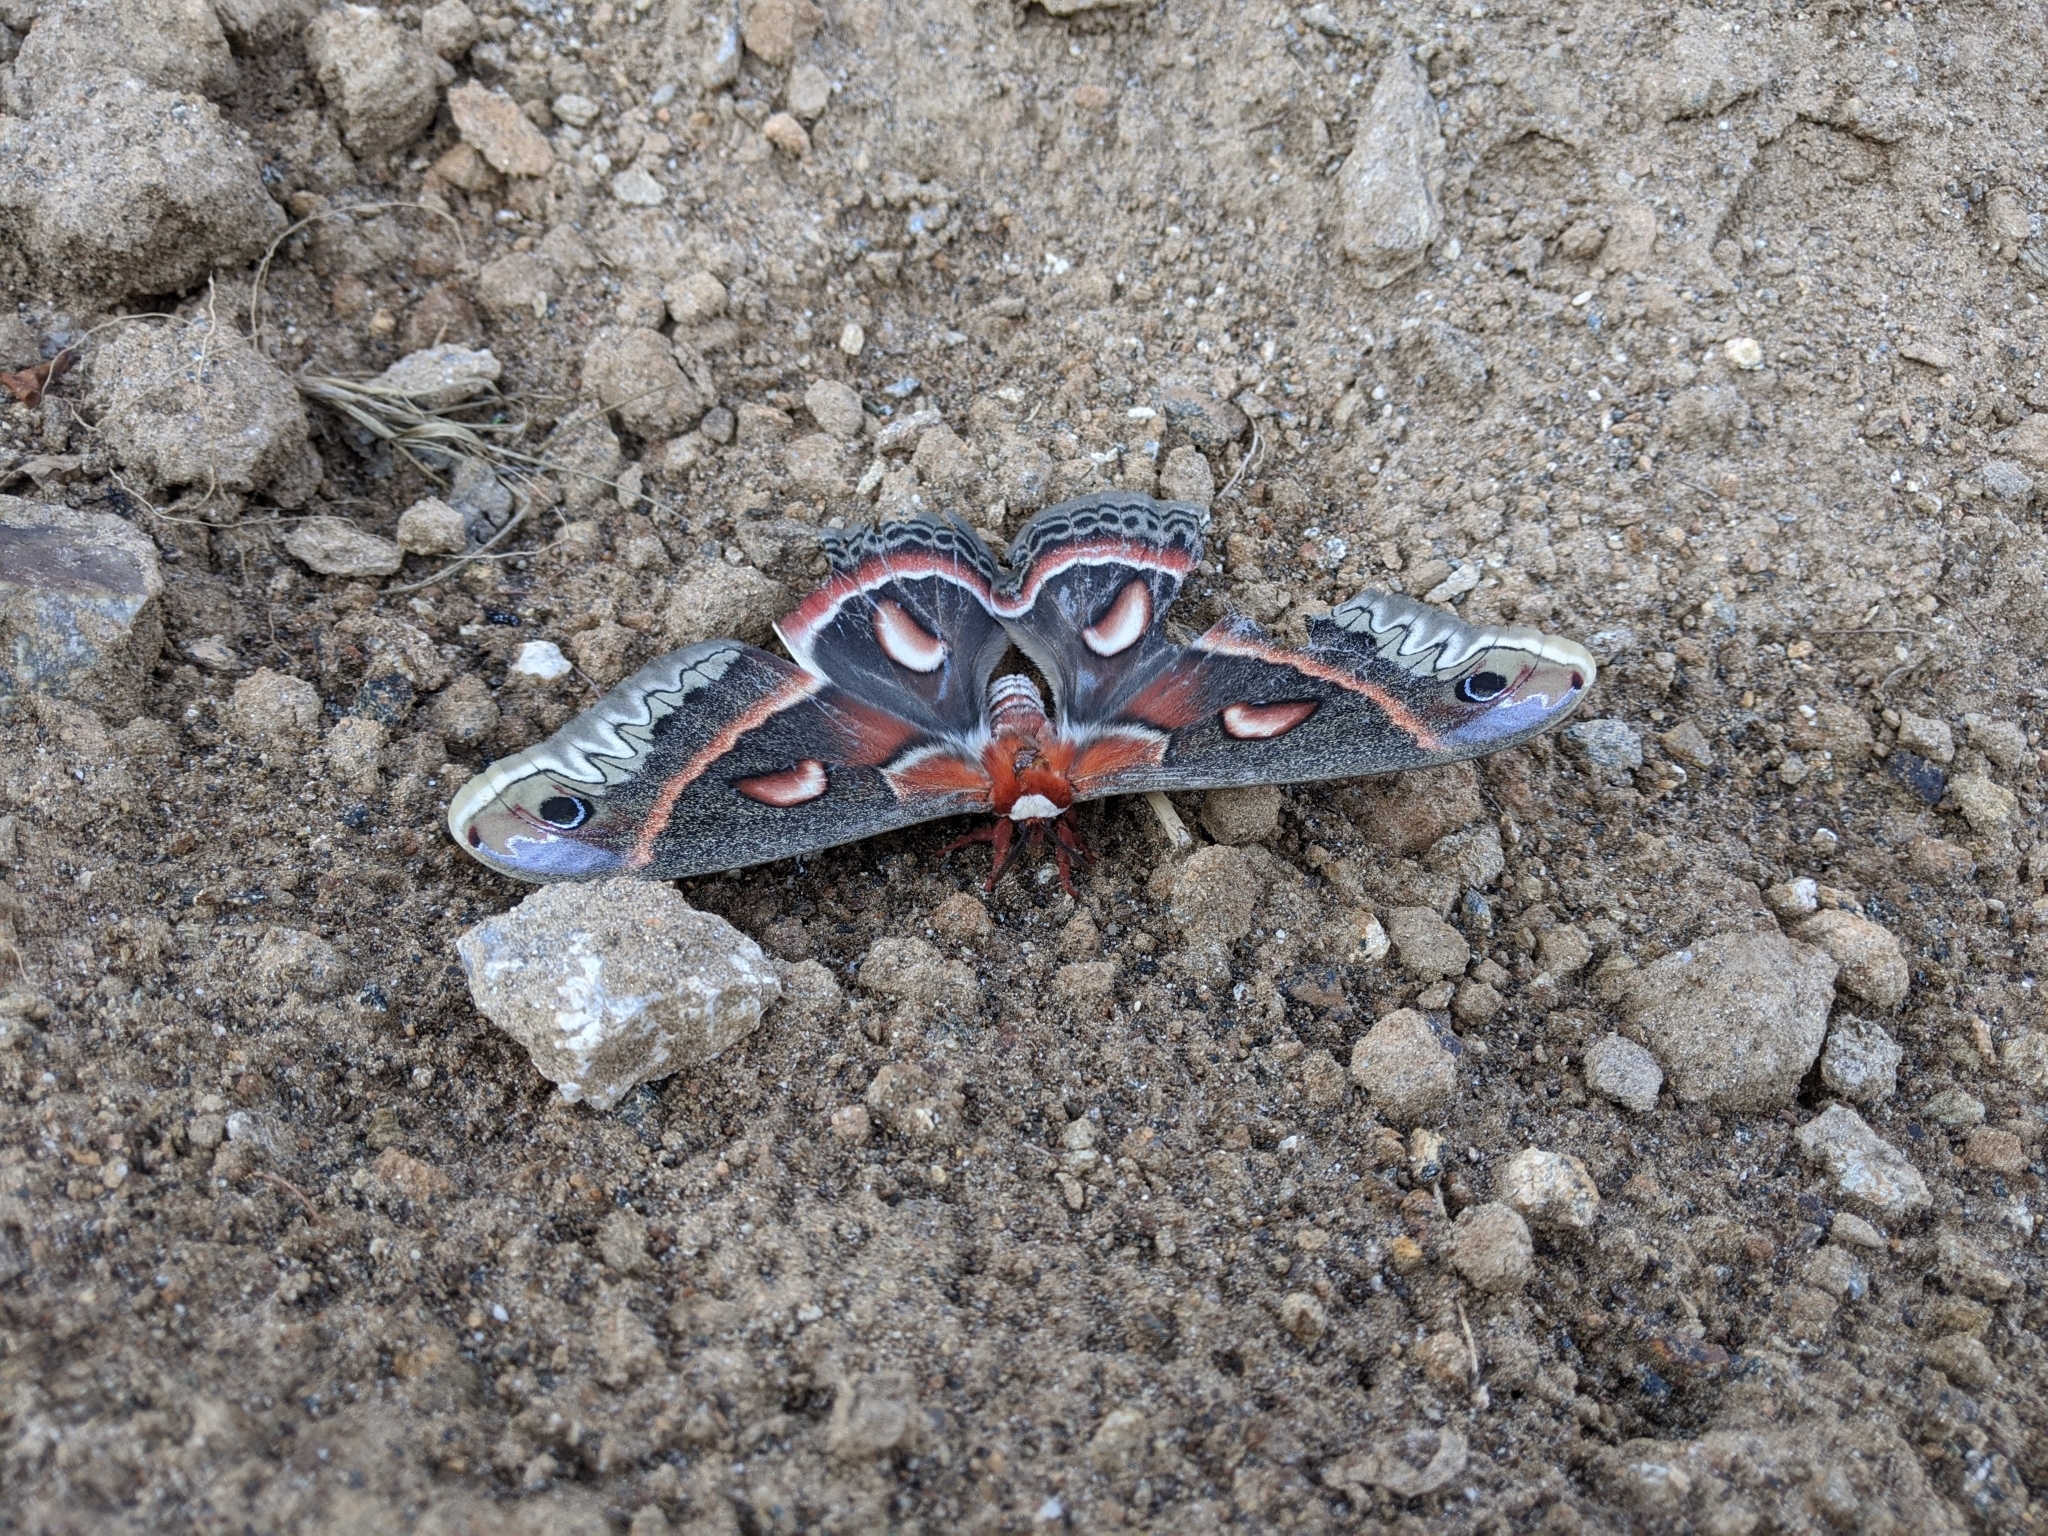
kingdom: Animalia
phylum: Arthropoda
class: Insecta
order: Lepidoptera
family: Saturniidae
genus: Hyalophora
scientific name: Hyalophora cecropia
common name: Cecropia silkmoth
